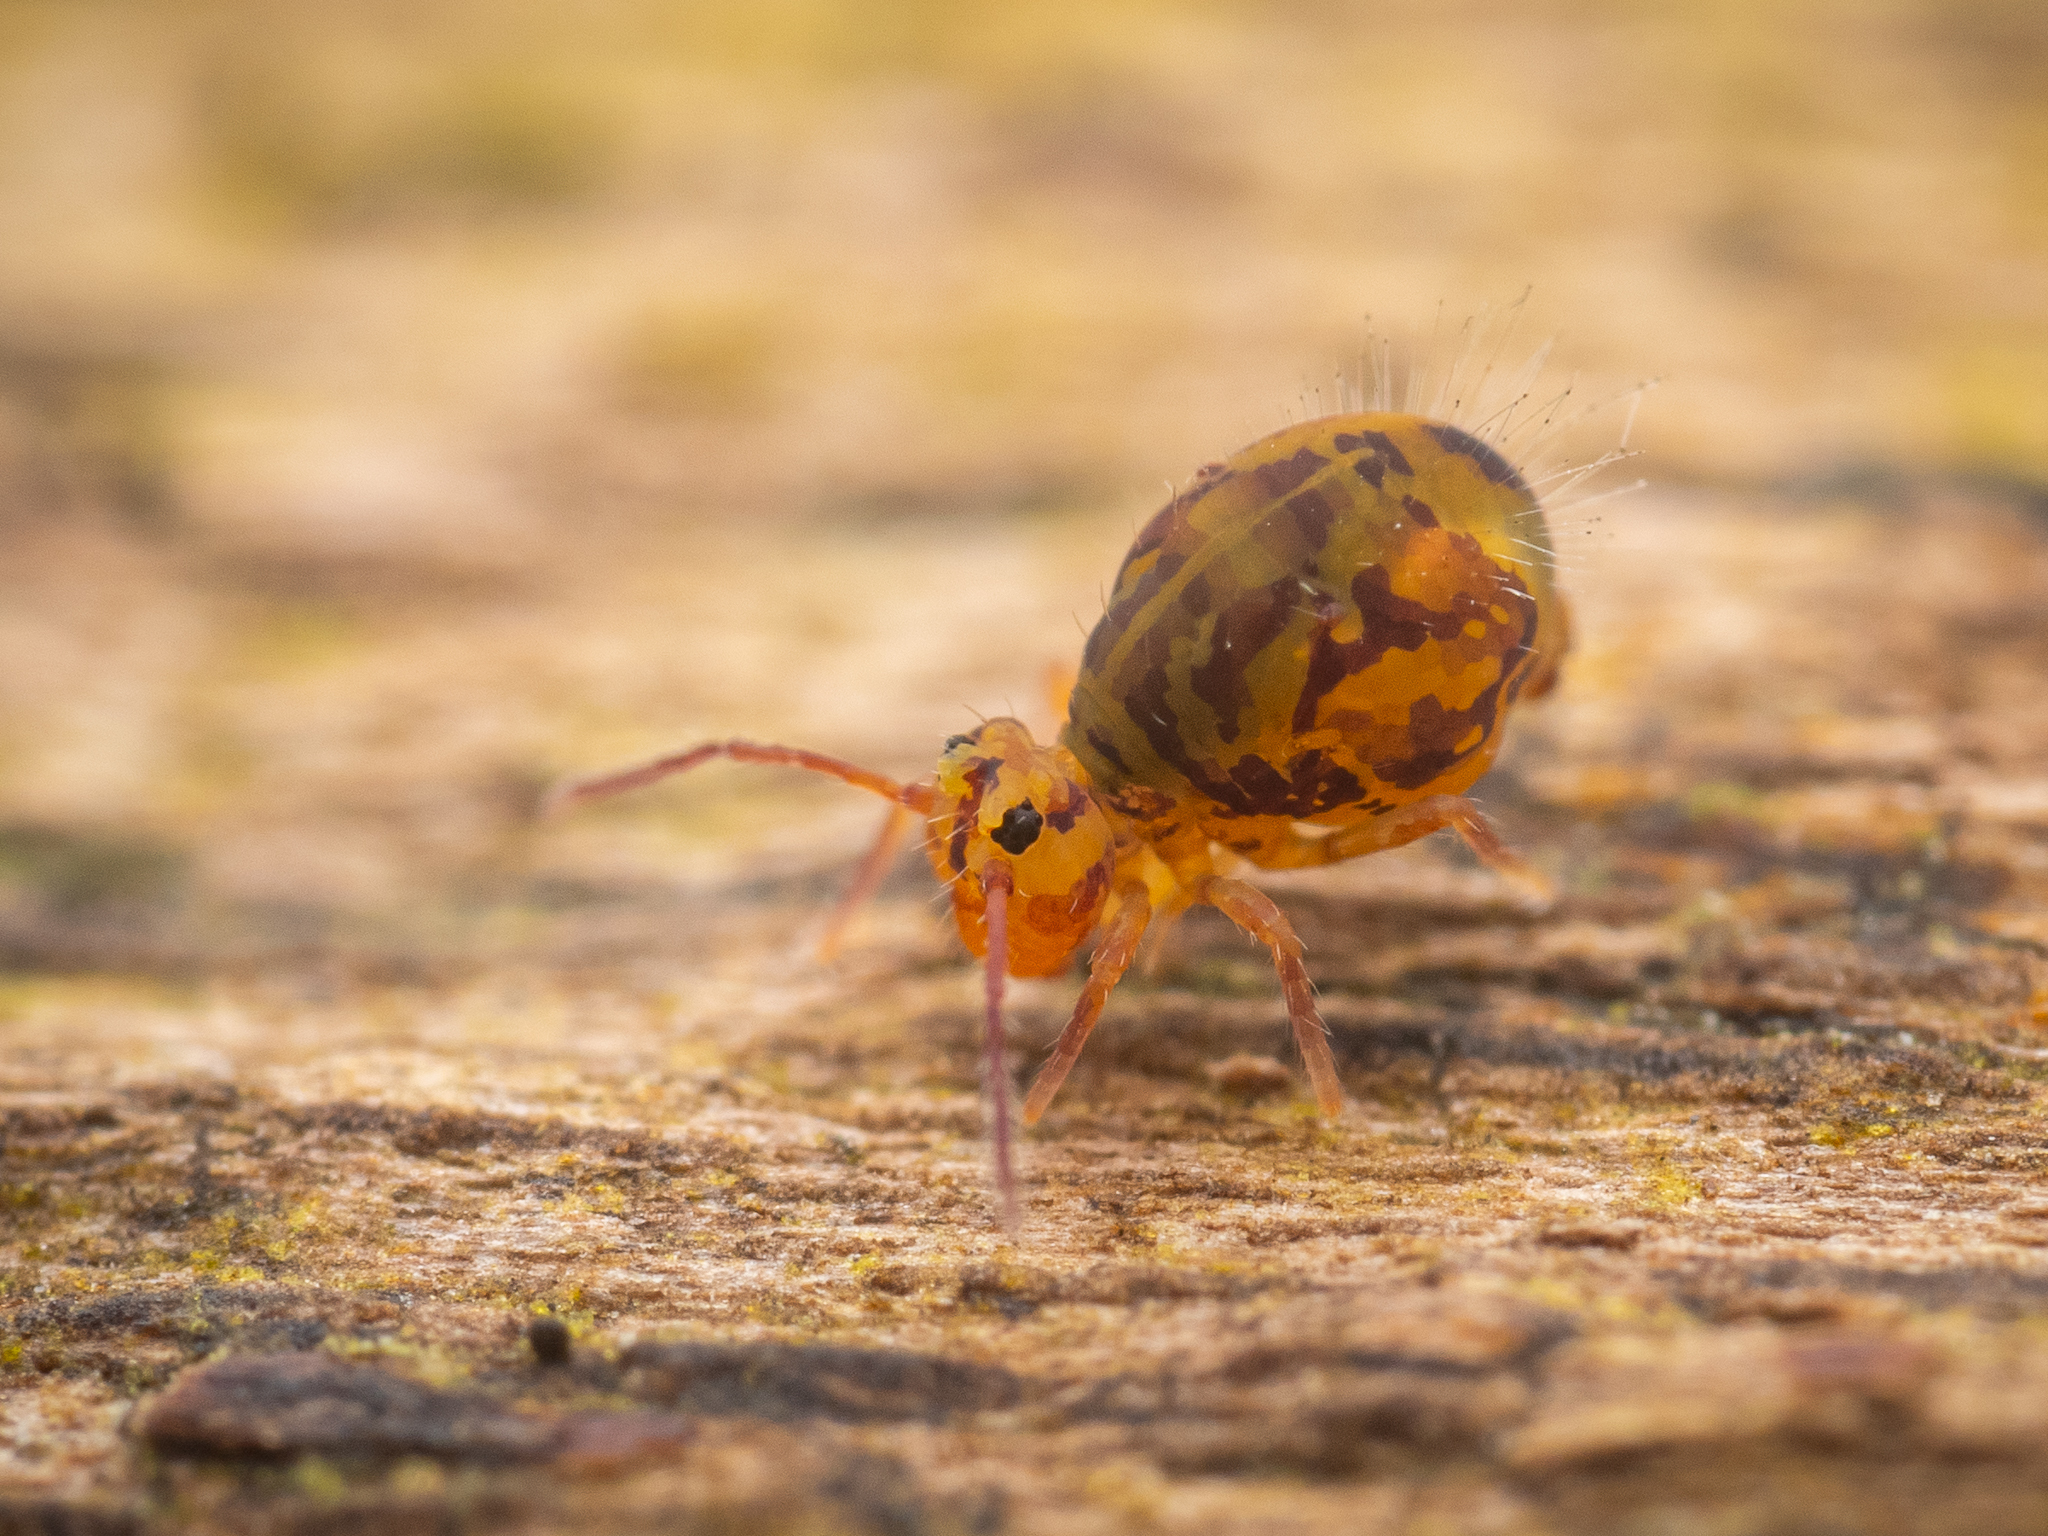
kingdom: Animalia
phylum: Arthropoda
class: Collembola
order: Symphypleona
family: Dicyrtomidae
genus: Dicyrtomina
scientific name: Dicyrtomina ornata
